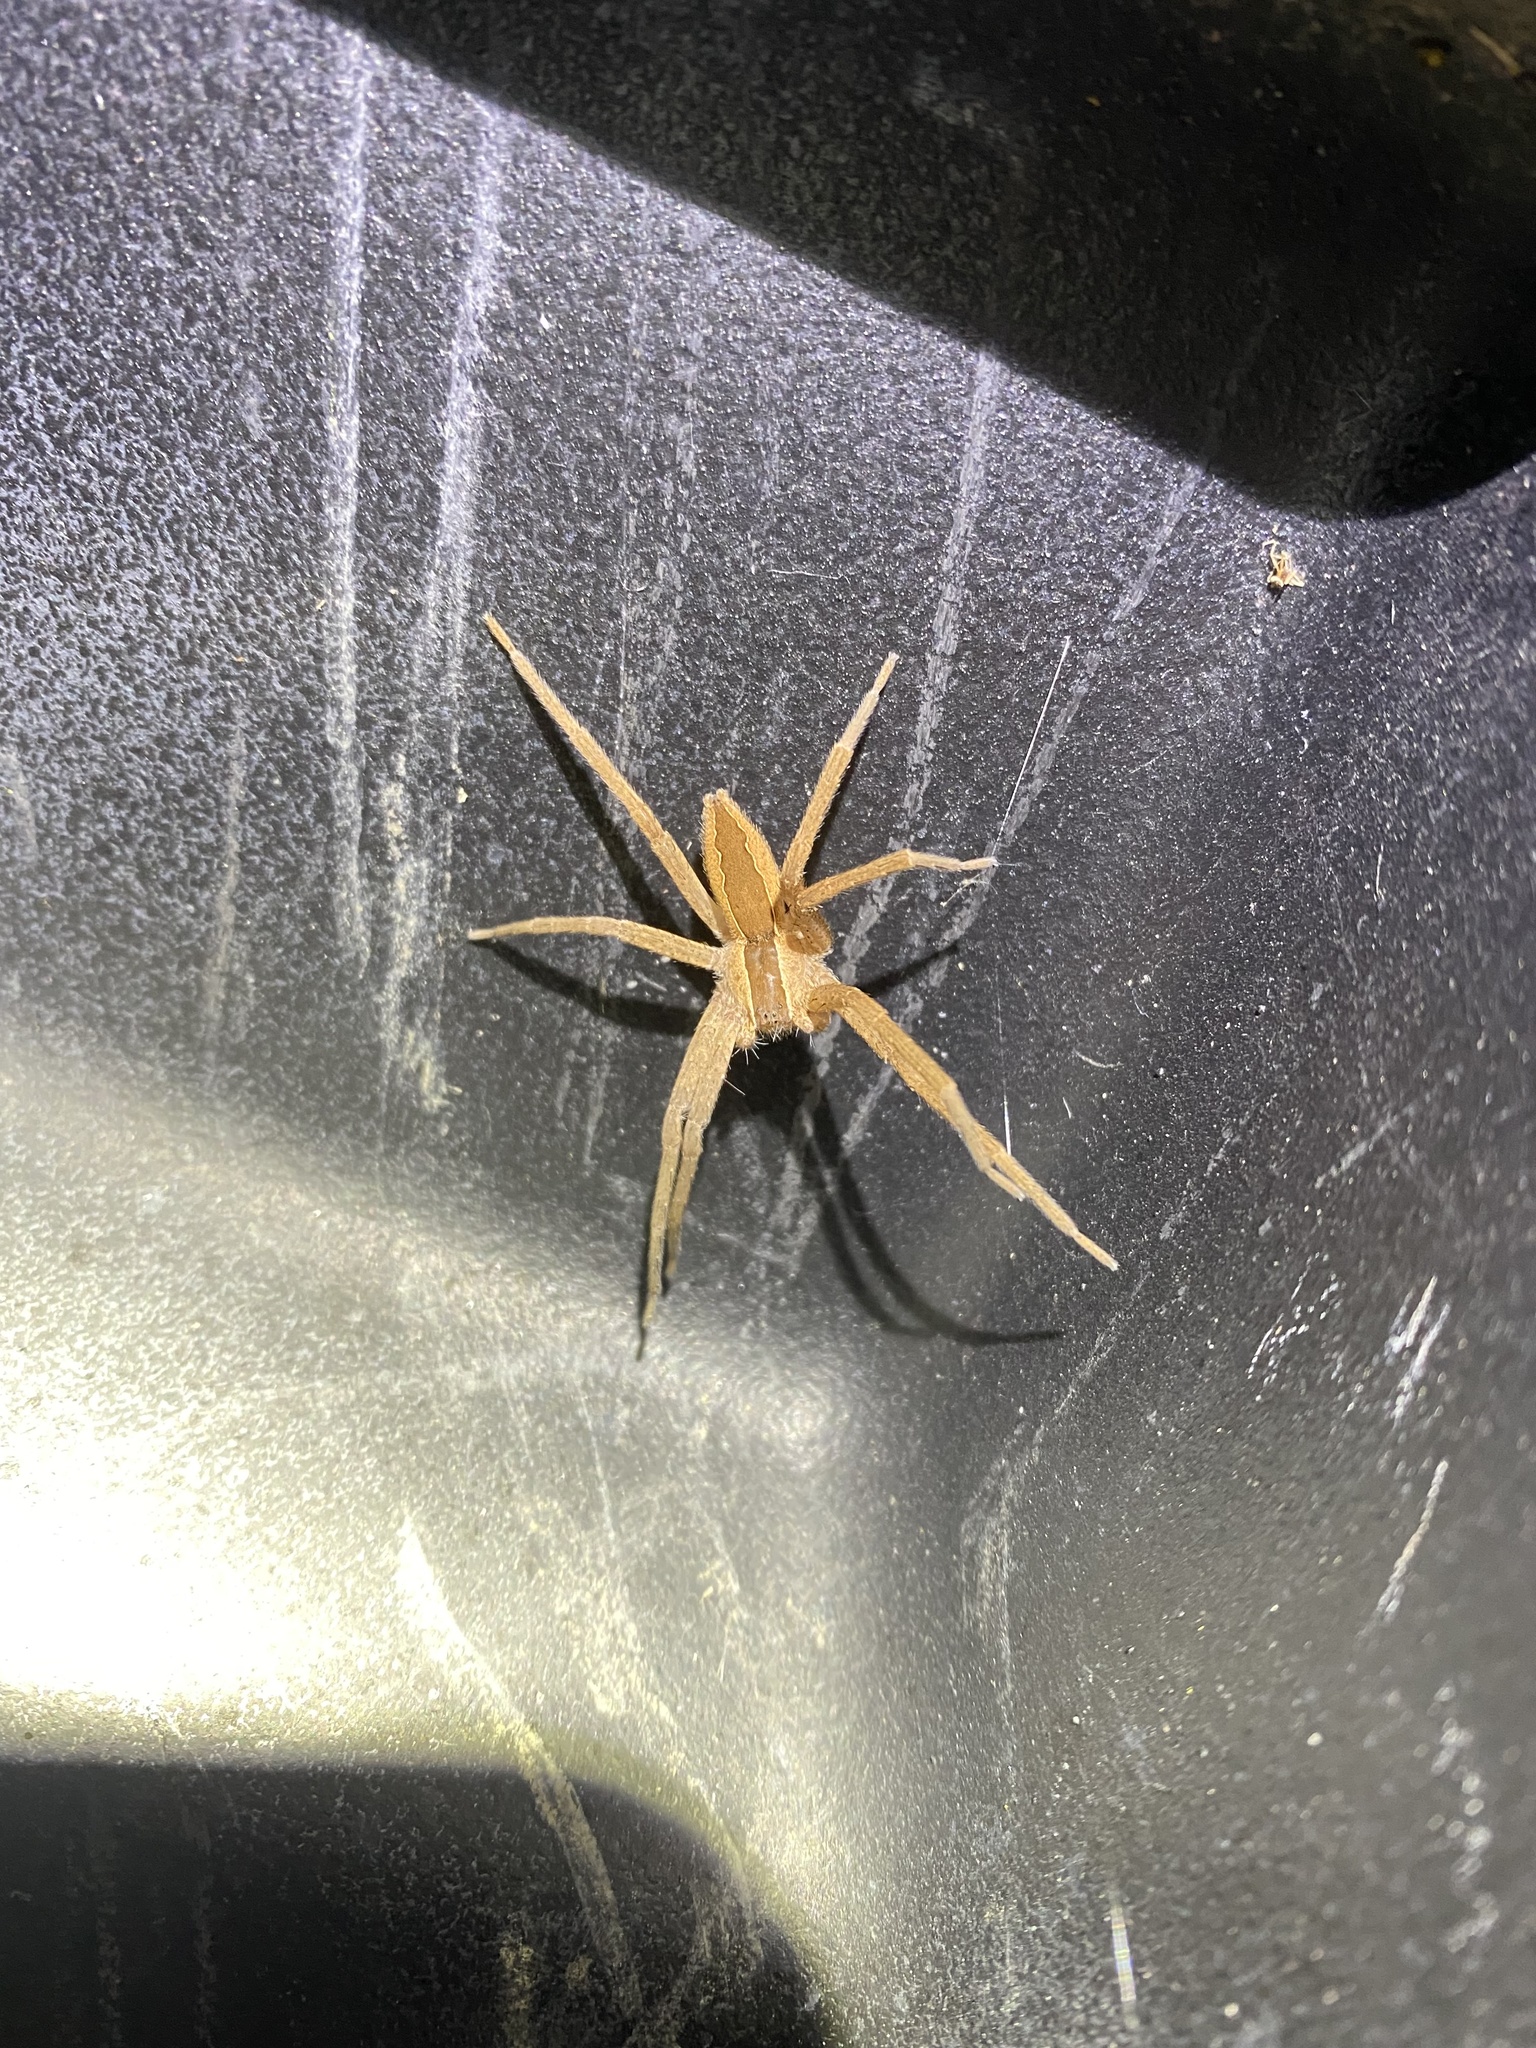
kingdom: Animalia
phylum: Arthropoda
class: Arachnida
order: Araneae
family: Pisauridae
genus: Pisaurina
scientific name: Pisaurina mira
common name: American nursery web spider
